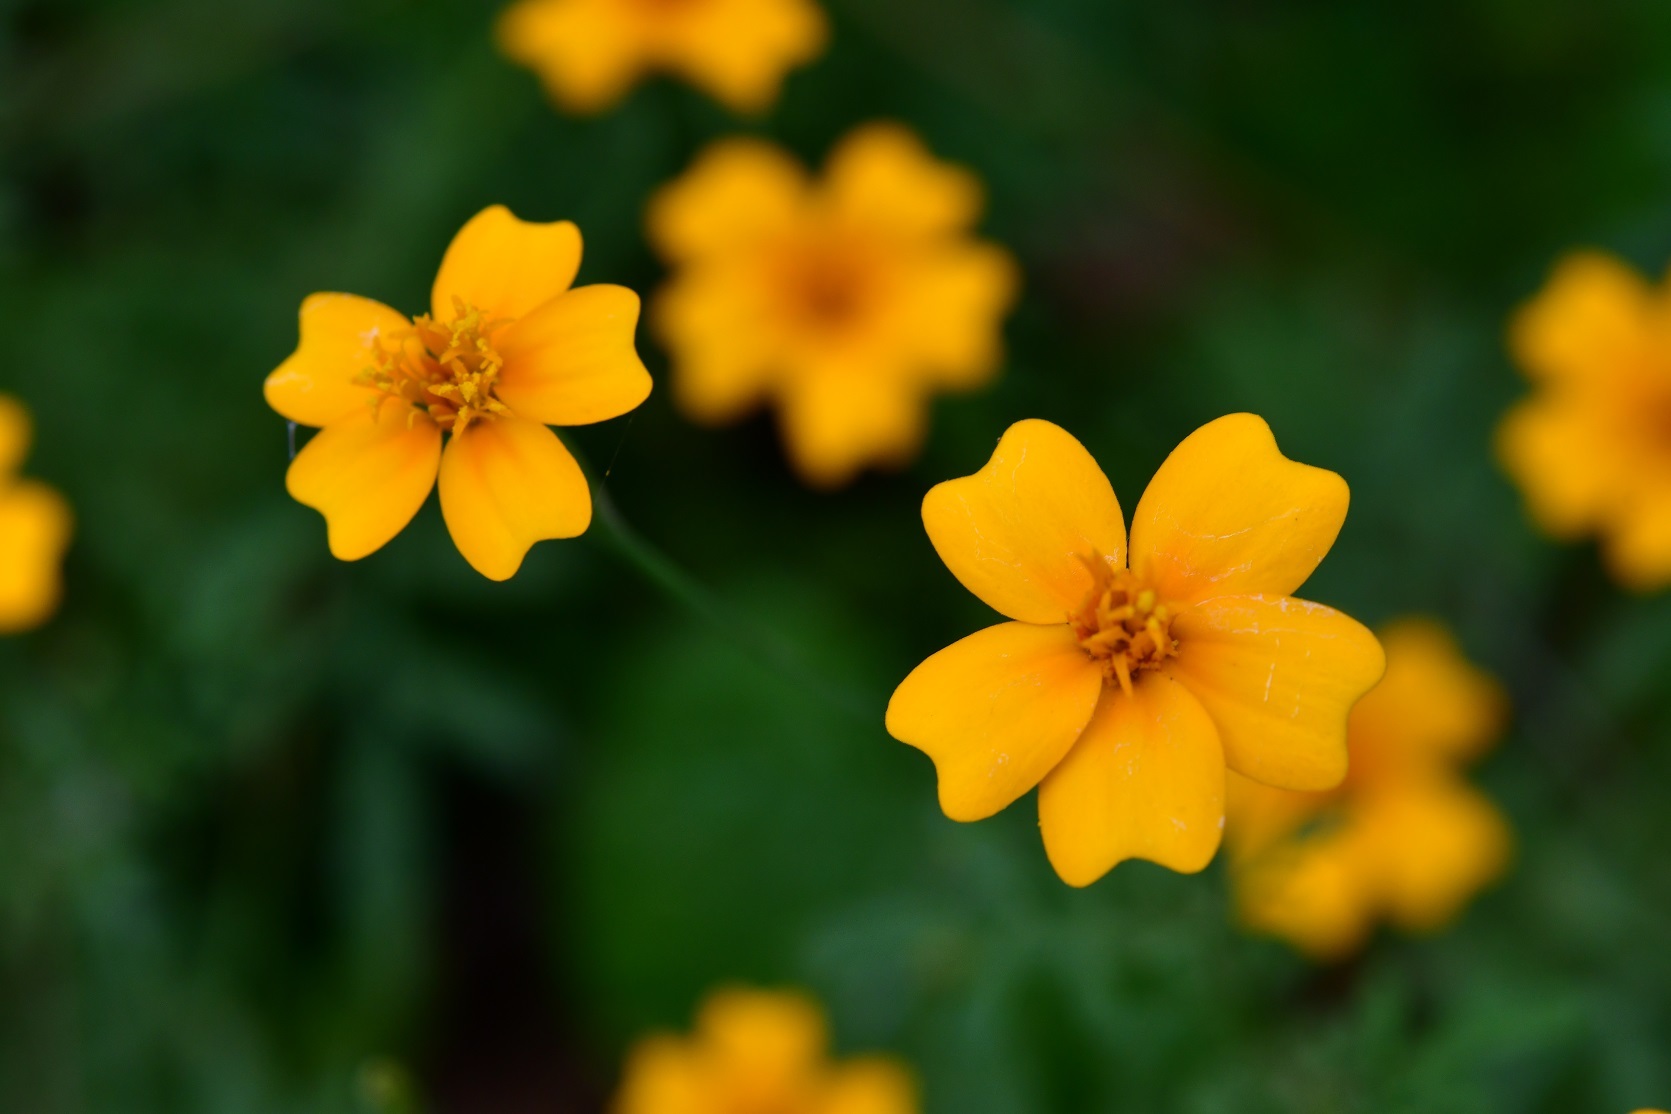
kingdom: Plantae
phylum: Tracheophyta
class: Magnoliopsida
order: Asterales
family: Asteraceae
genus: Tagetes
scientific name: Tagetes tenuifolia
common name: Signet marigold
